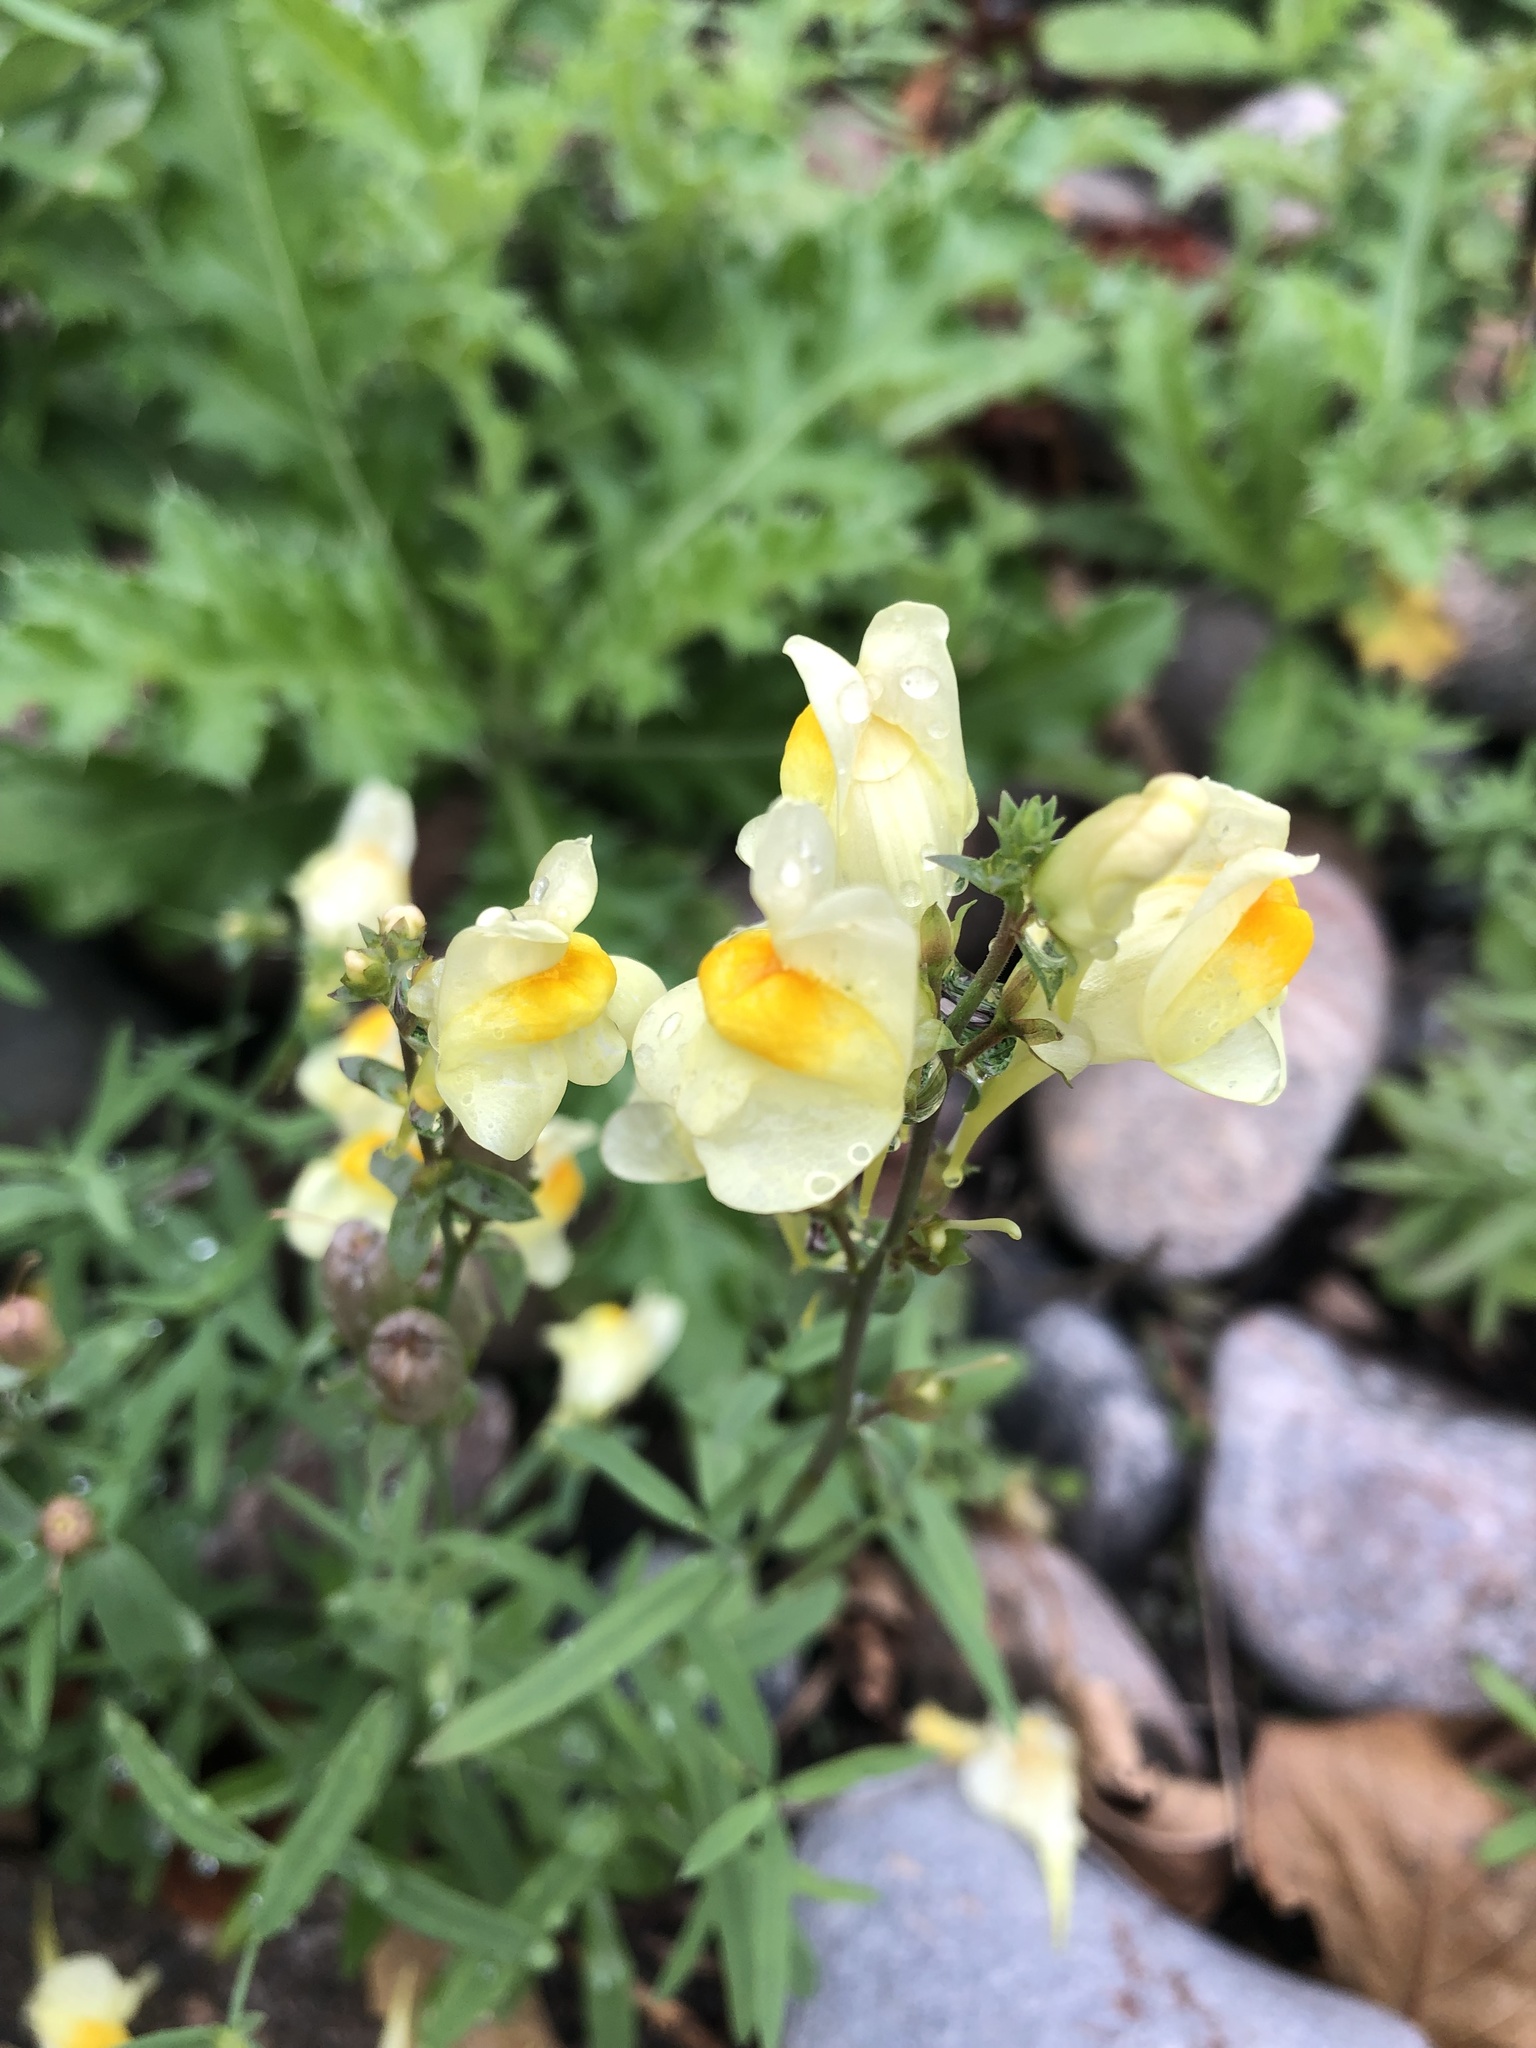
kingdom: Plantae
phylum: Tracheophyta
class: Magnoliopsida
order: Lamiales
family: Plantaginaceae
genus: Linaria
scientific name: Linaria vulgaris
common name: Butter and eggs
